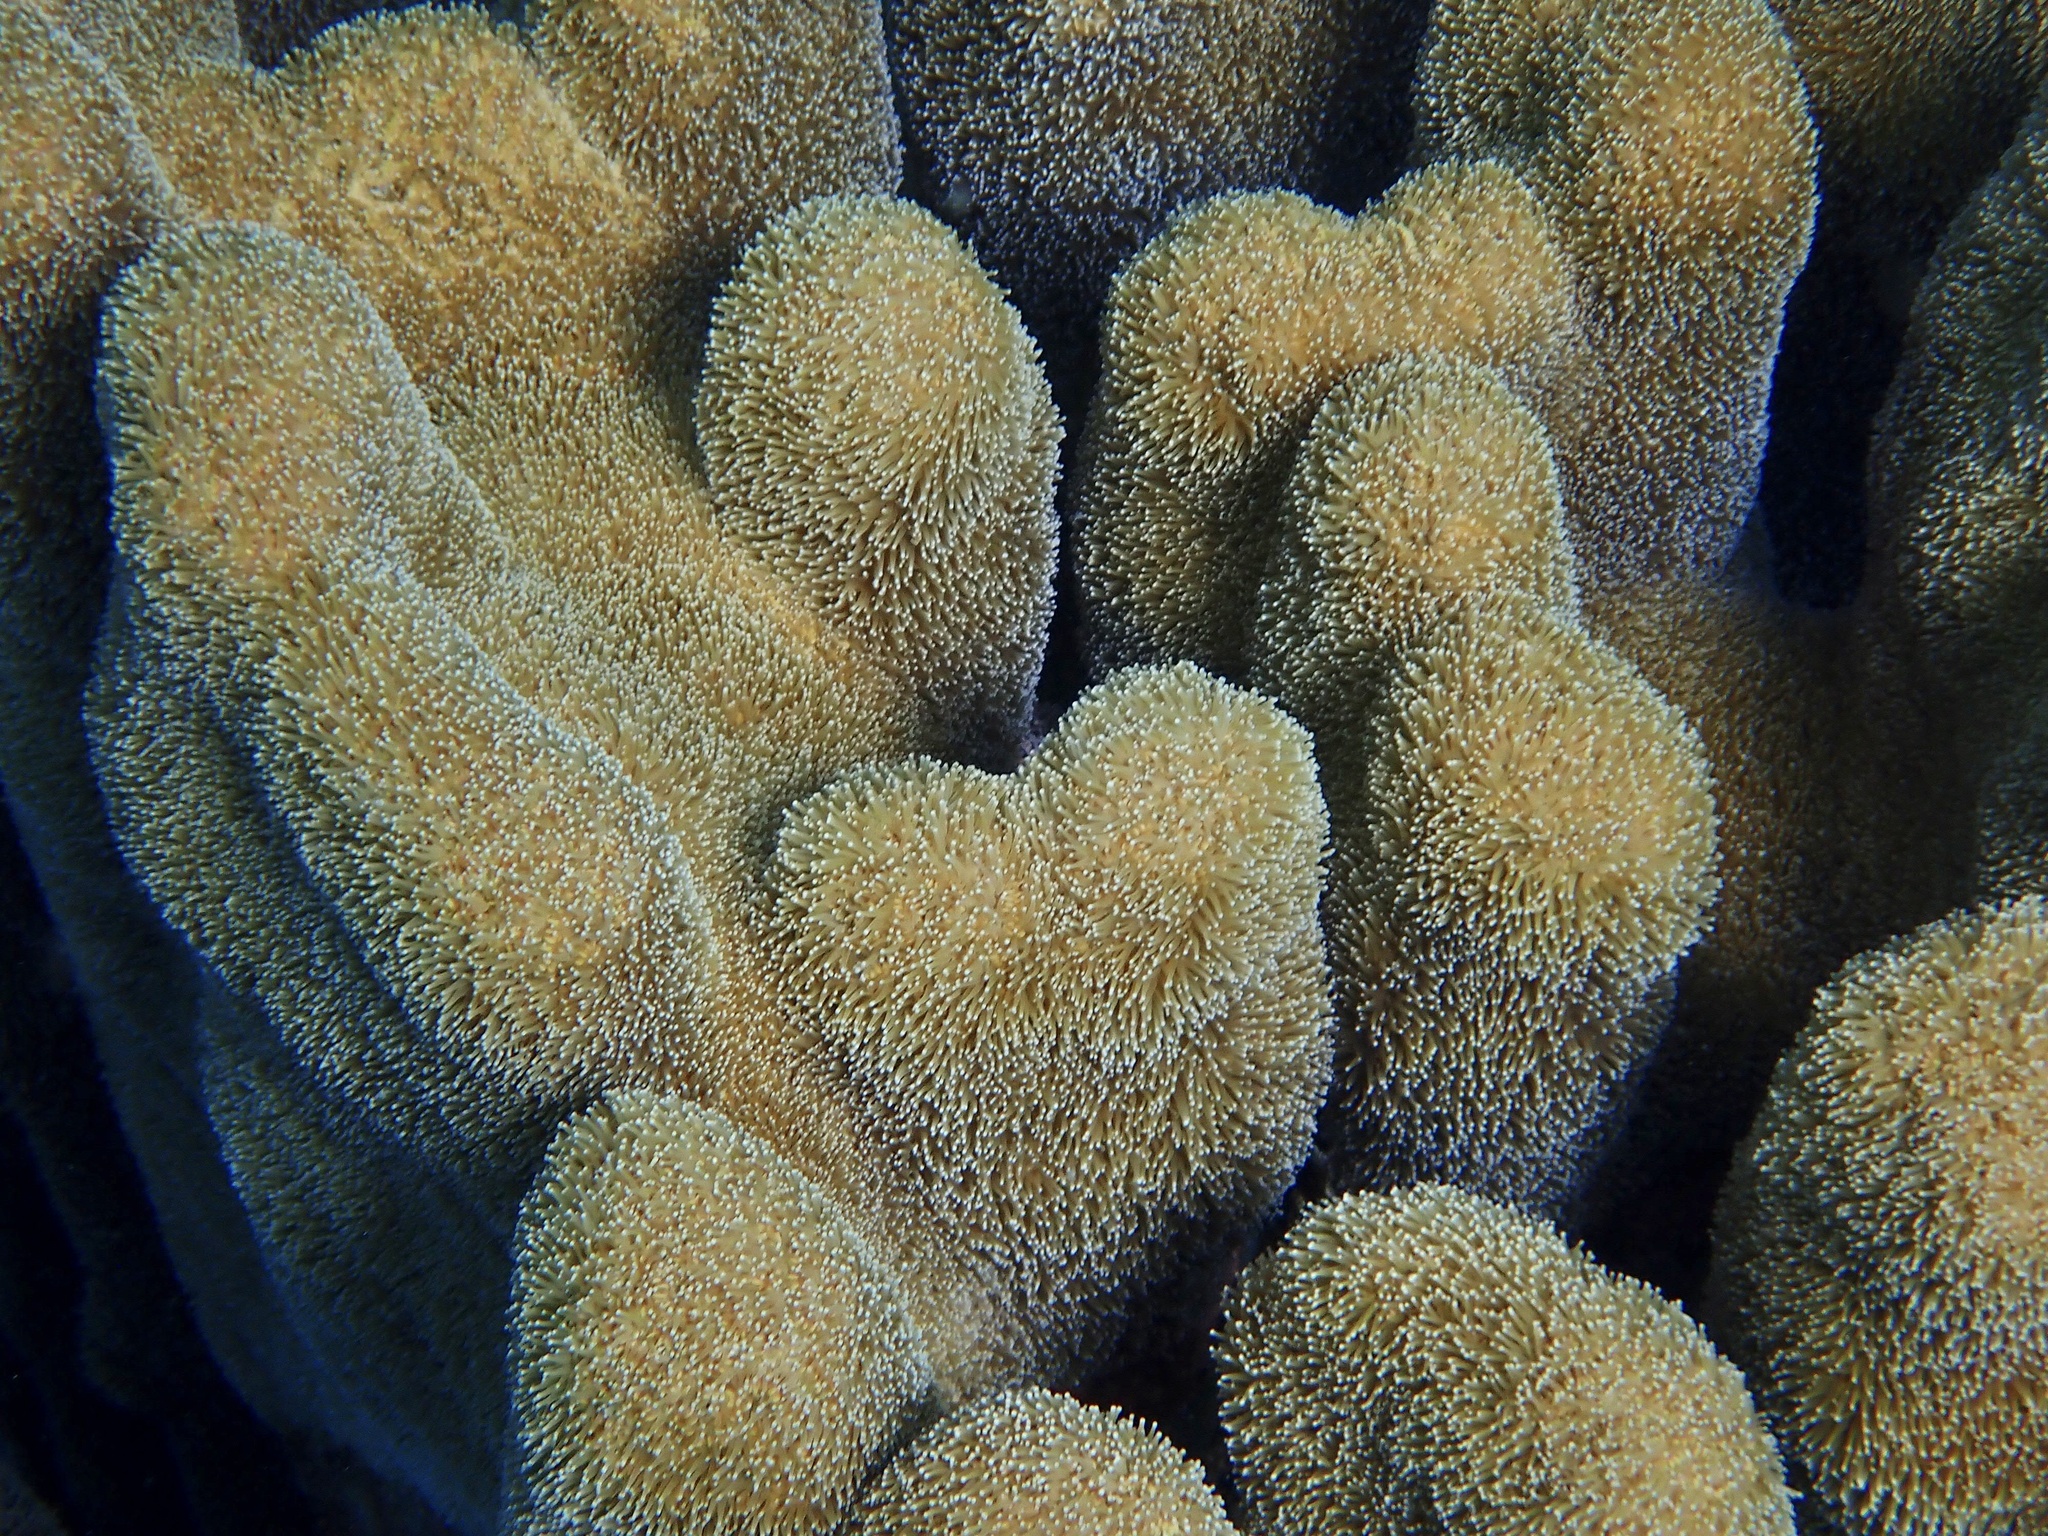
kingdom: Animalia
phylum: Cnidaria
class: Anthozoa
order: Scleractinia
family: Meandrinidae
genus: Dendrogyra
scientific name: Dendrogyra cylindrus
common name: Pillar coral
